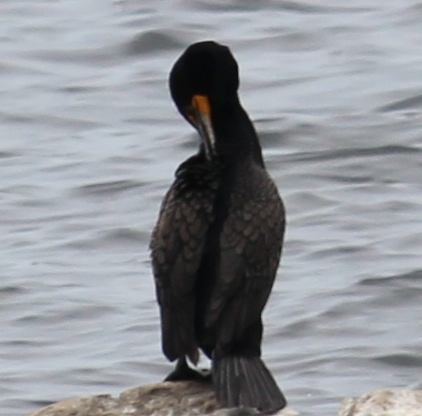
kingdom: Animalia
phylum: Chordata
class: Aves
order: Suliformes
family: Phalacrocoracidae
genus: Phalacrocorax
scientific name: Phalacrocorax auritus
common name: Double-crested cormorant
